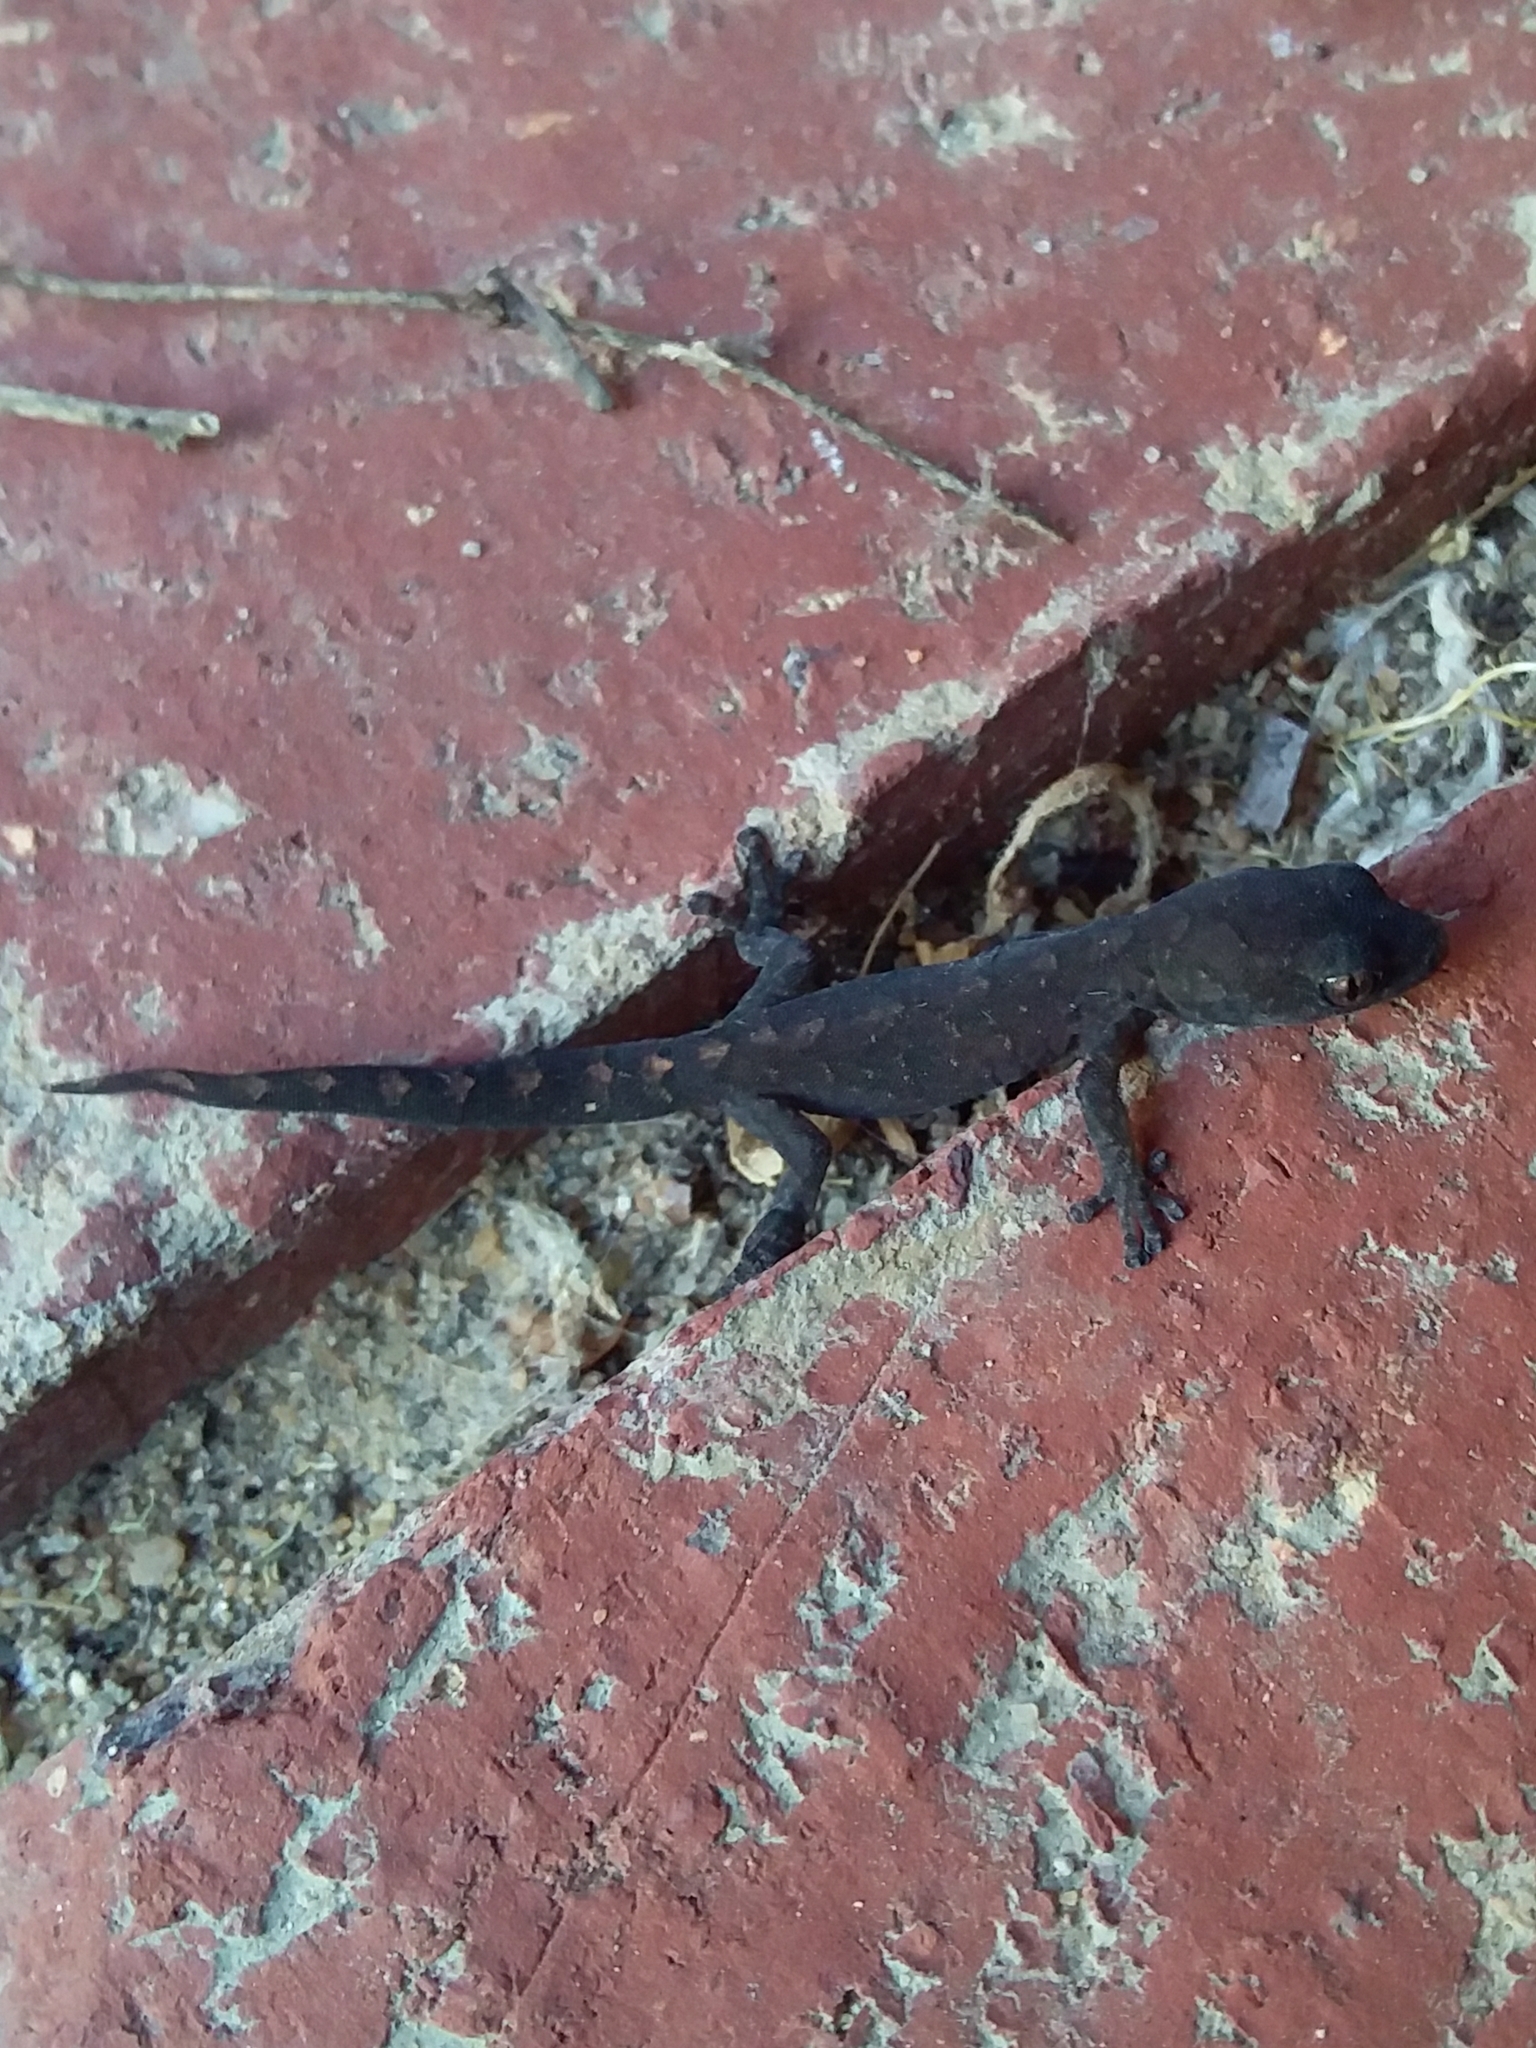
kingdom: Animalia
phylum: Chordata
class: Squamata
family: Gekkonidae
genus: Christinus
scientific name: Christinus marmoratus
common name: Marbled gecko
